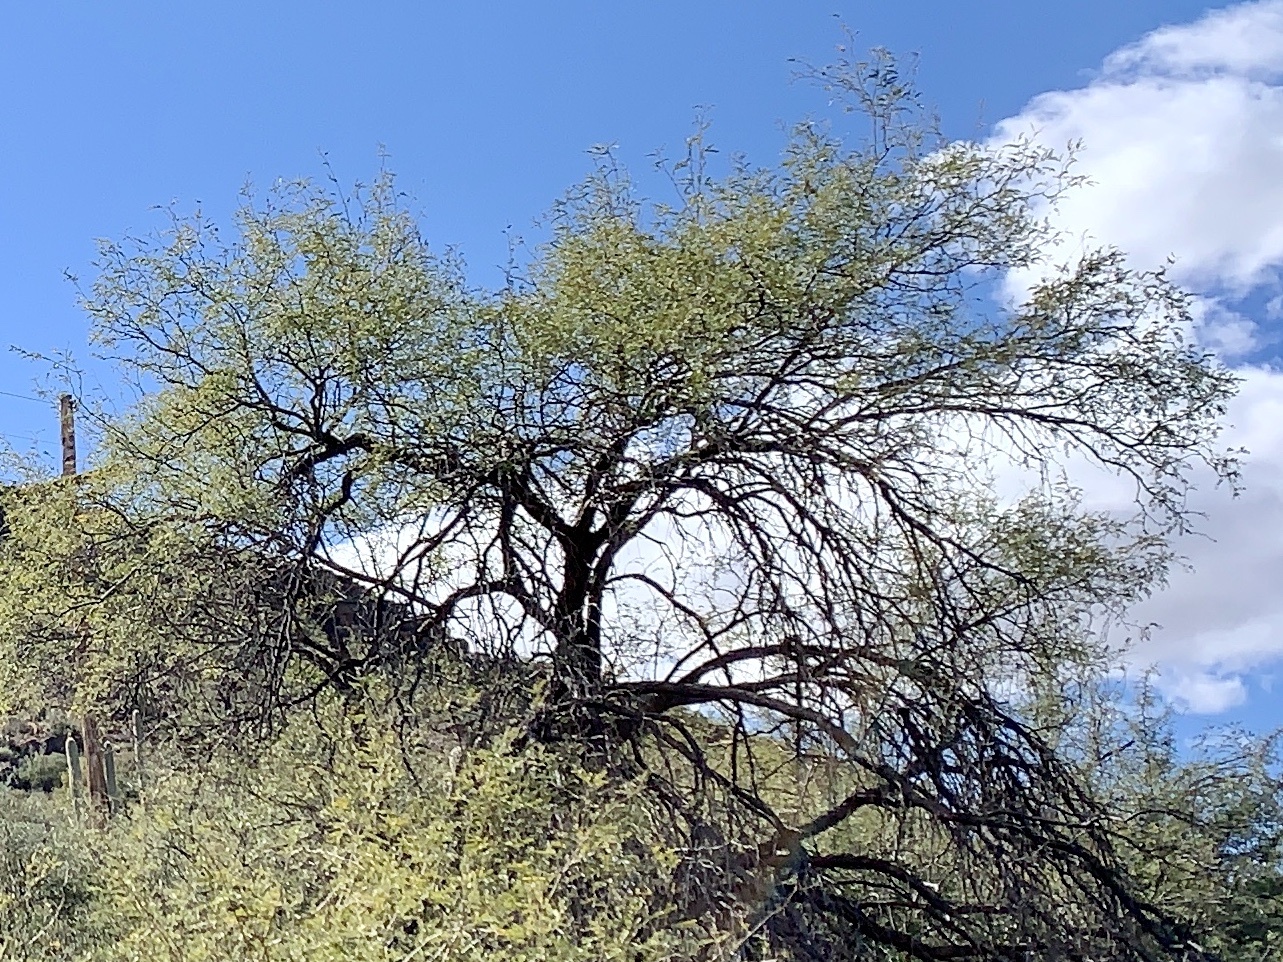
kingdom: Plantae
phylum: Tracheophyta
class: Magnoliopsida
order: Fabales
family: Fabaceae
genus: Parkinsonia
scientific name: Parkinsonia microphylla
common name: Yellow paloverde
